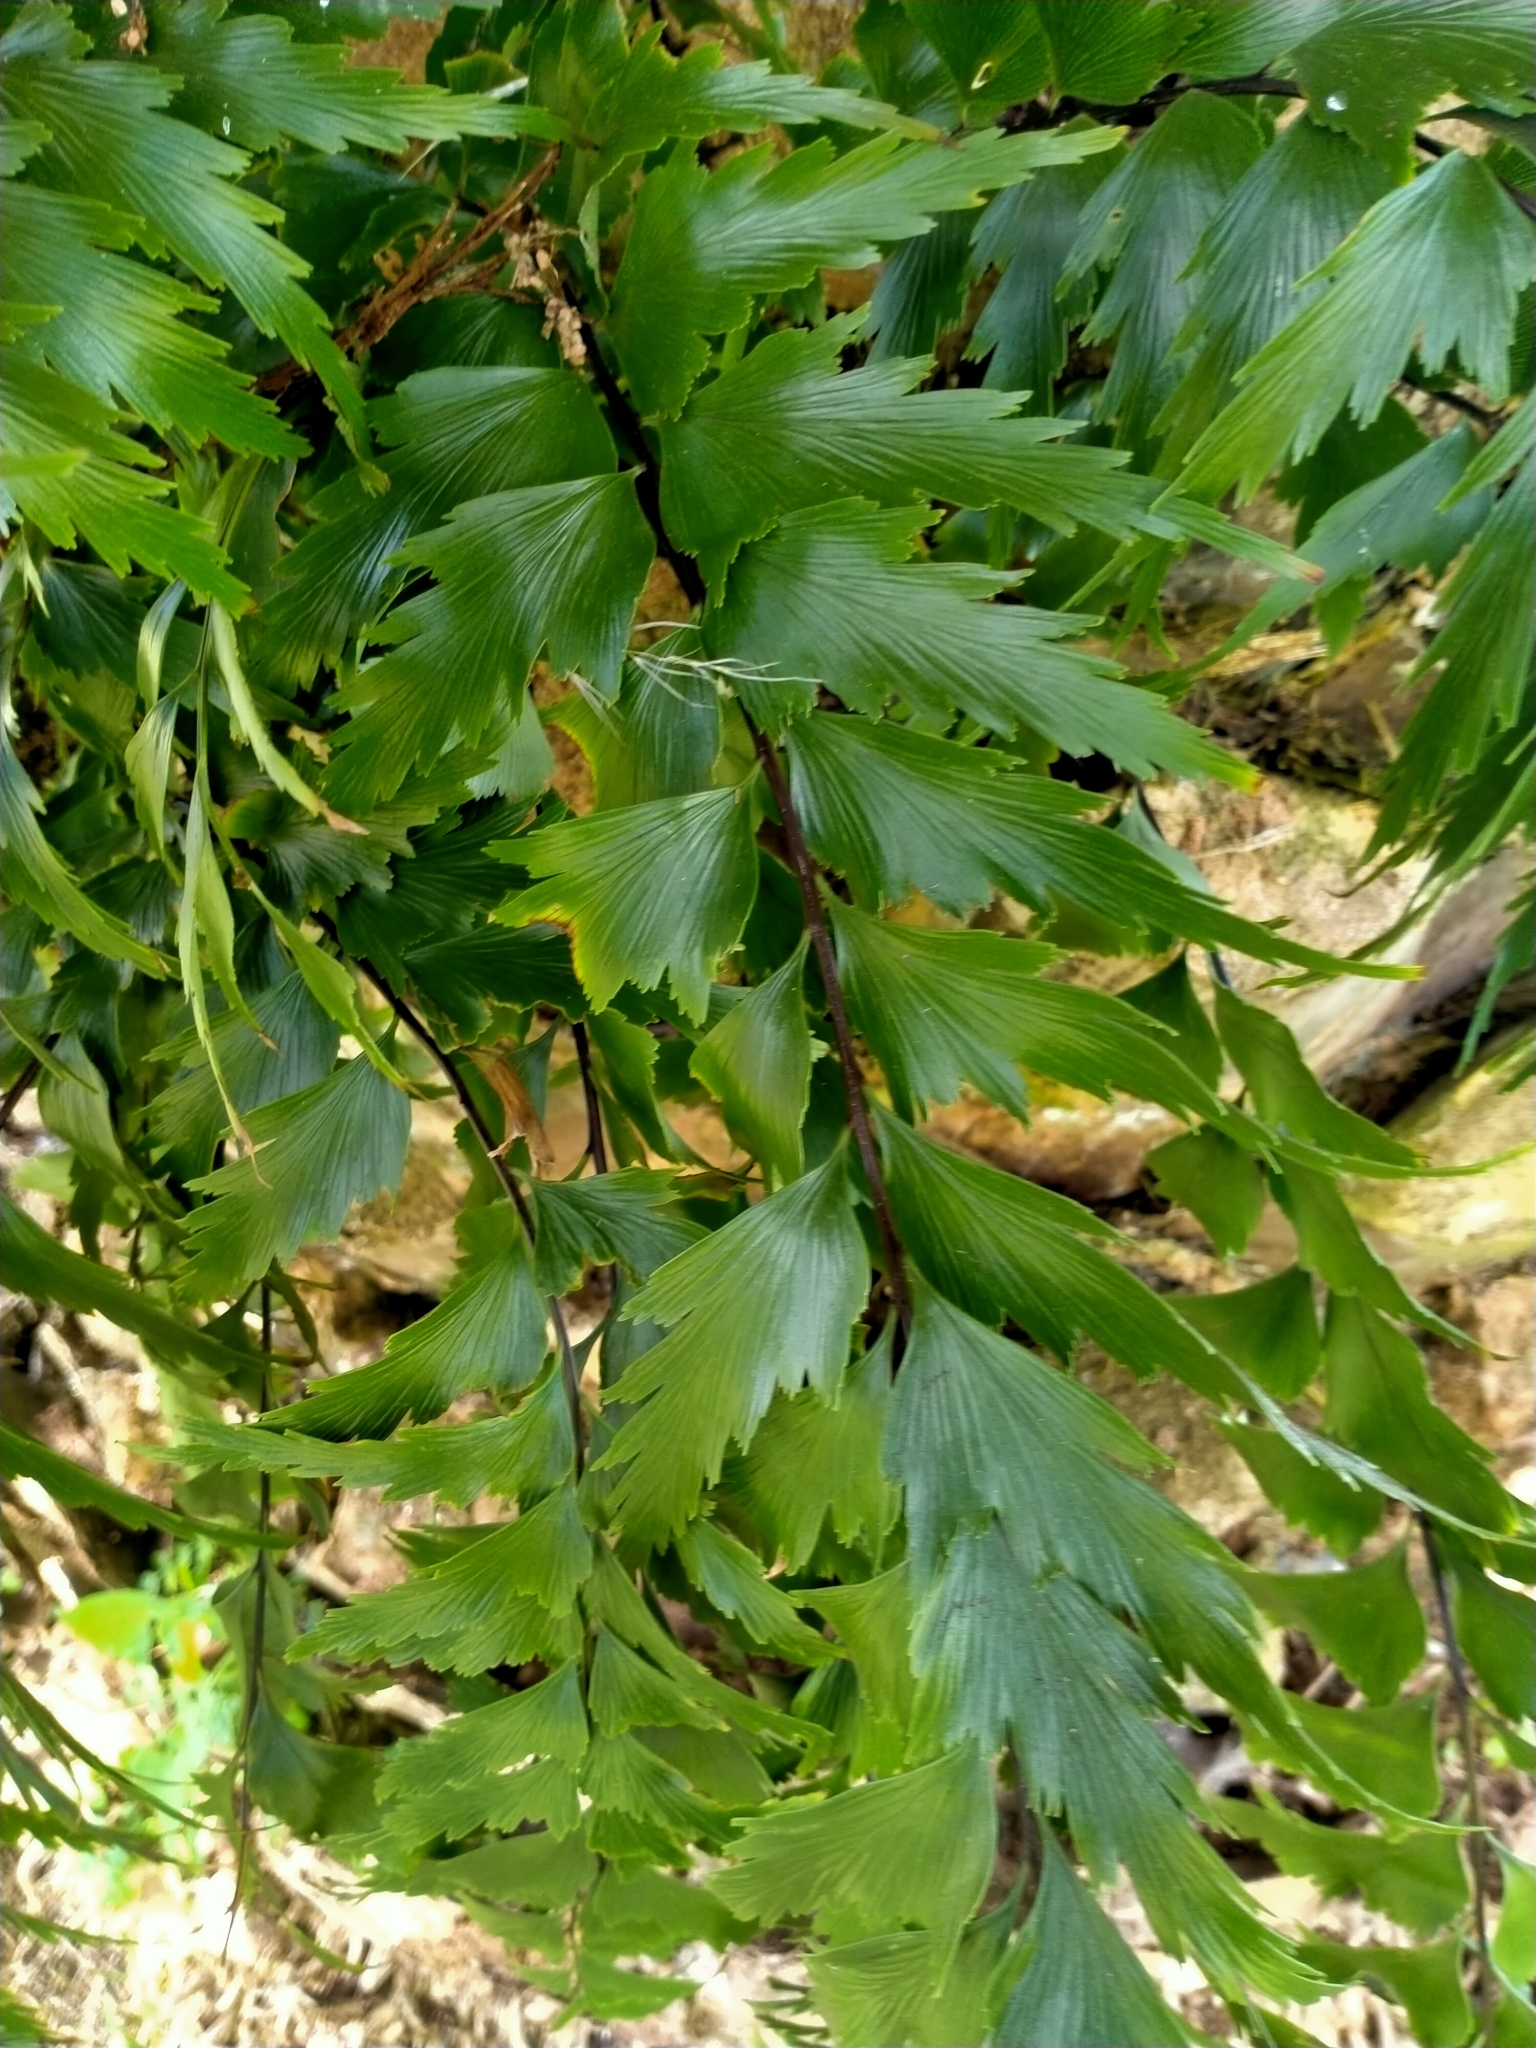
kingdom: Plantae
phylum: Tracheophyta
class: Polypodiopsida
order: Polypodiales
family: Aspleniaceae
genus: Asplenium
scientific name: Asplenium polyodon
